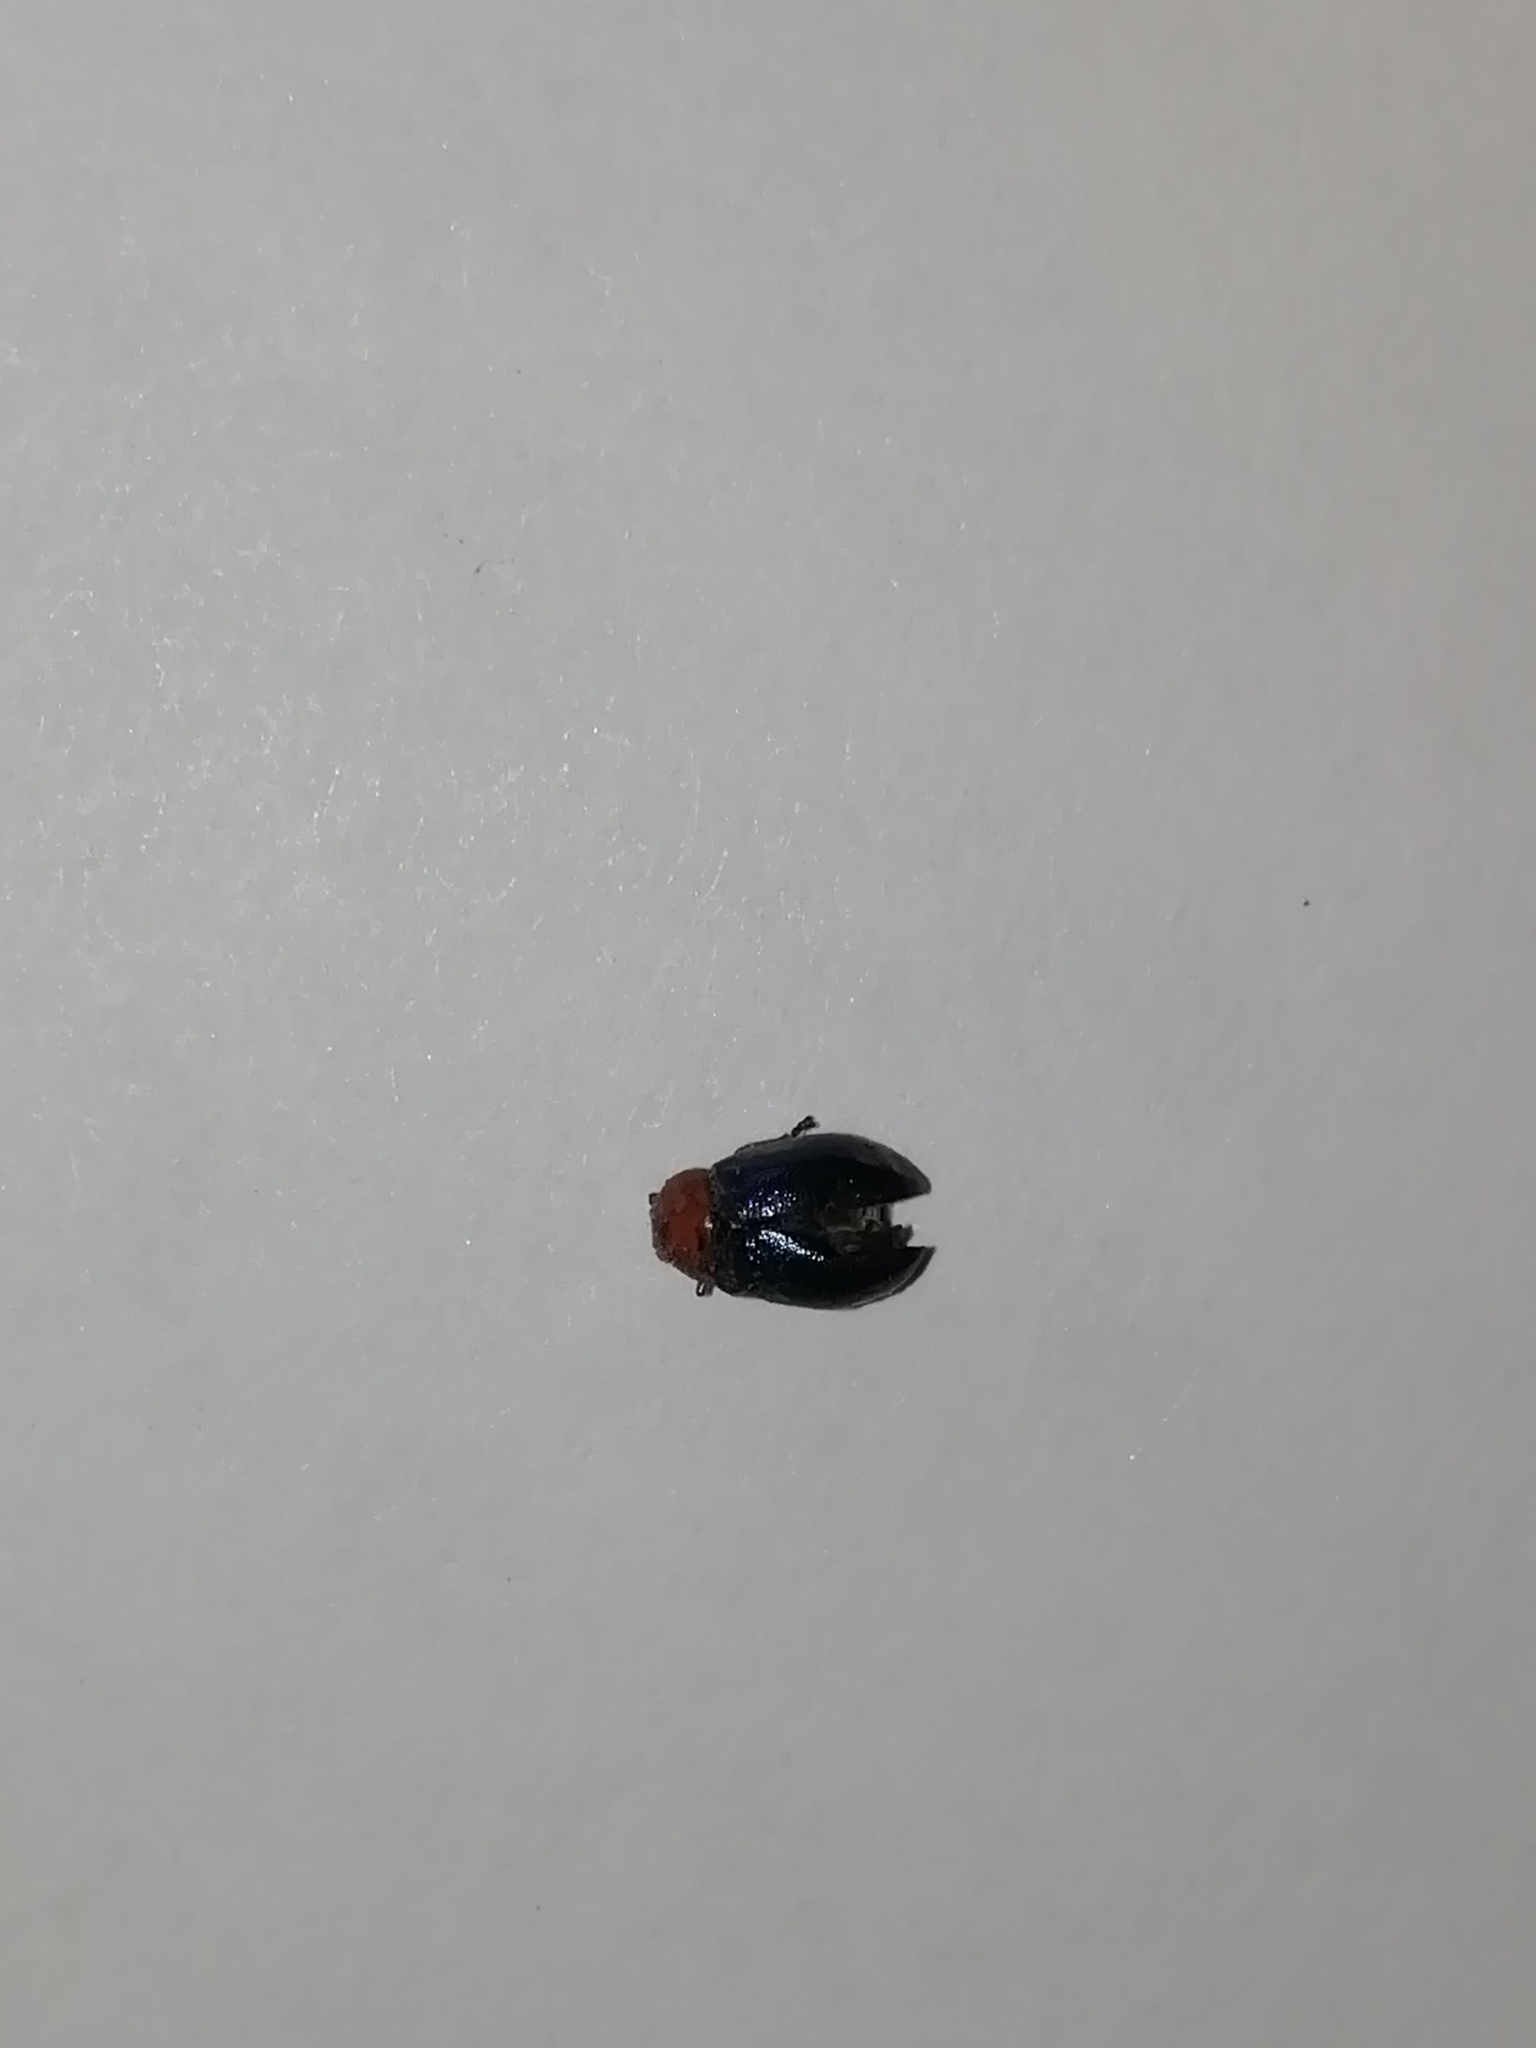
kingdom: Animalia
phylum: Arthropoda
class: Insecta
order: Coleoptera
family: Chrysomelidae
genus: Gastrophysa
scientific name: Gastrophysa polygoni
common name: Knotweed leaf beetle
